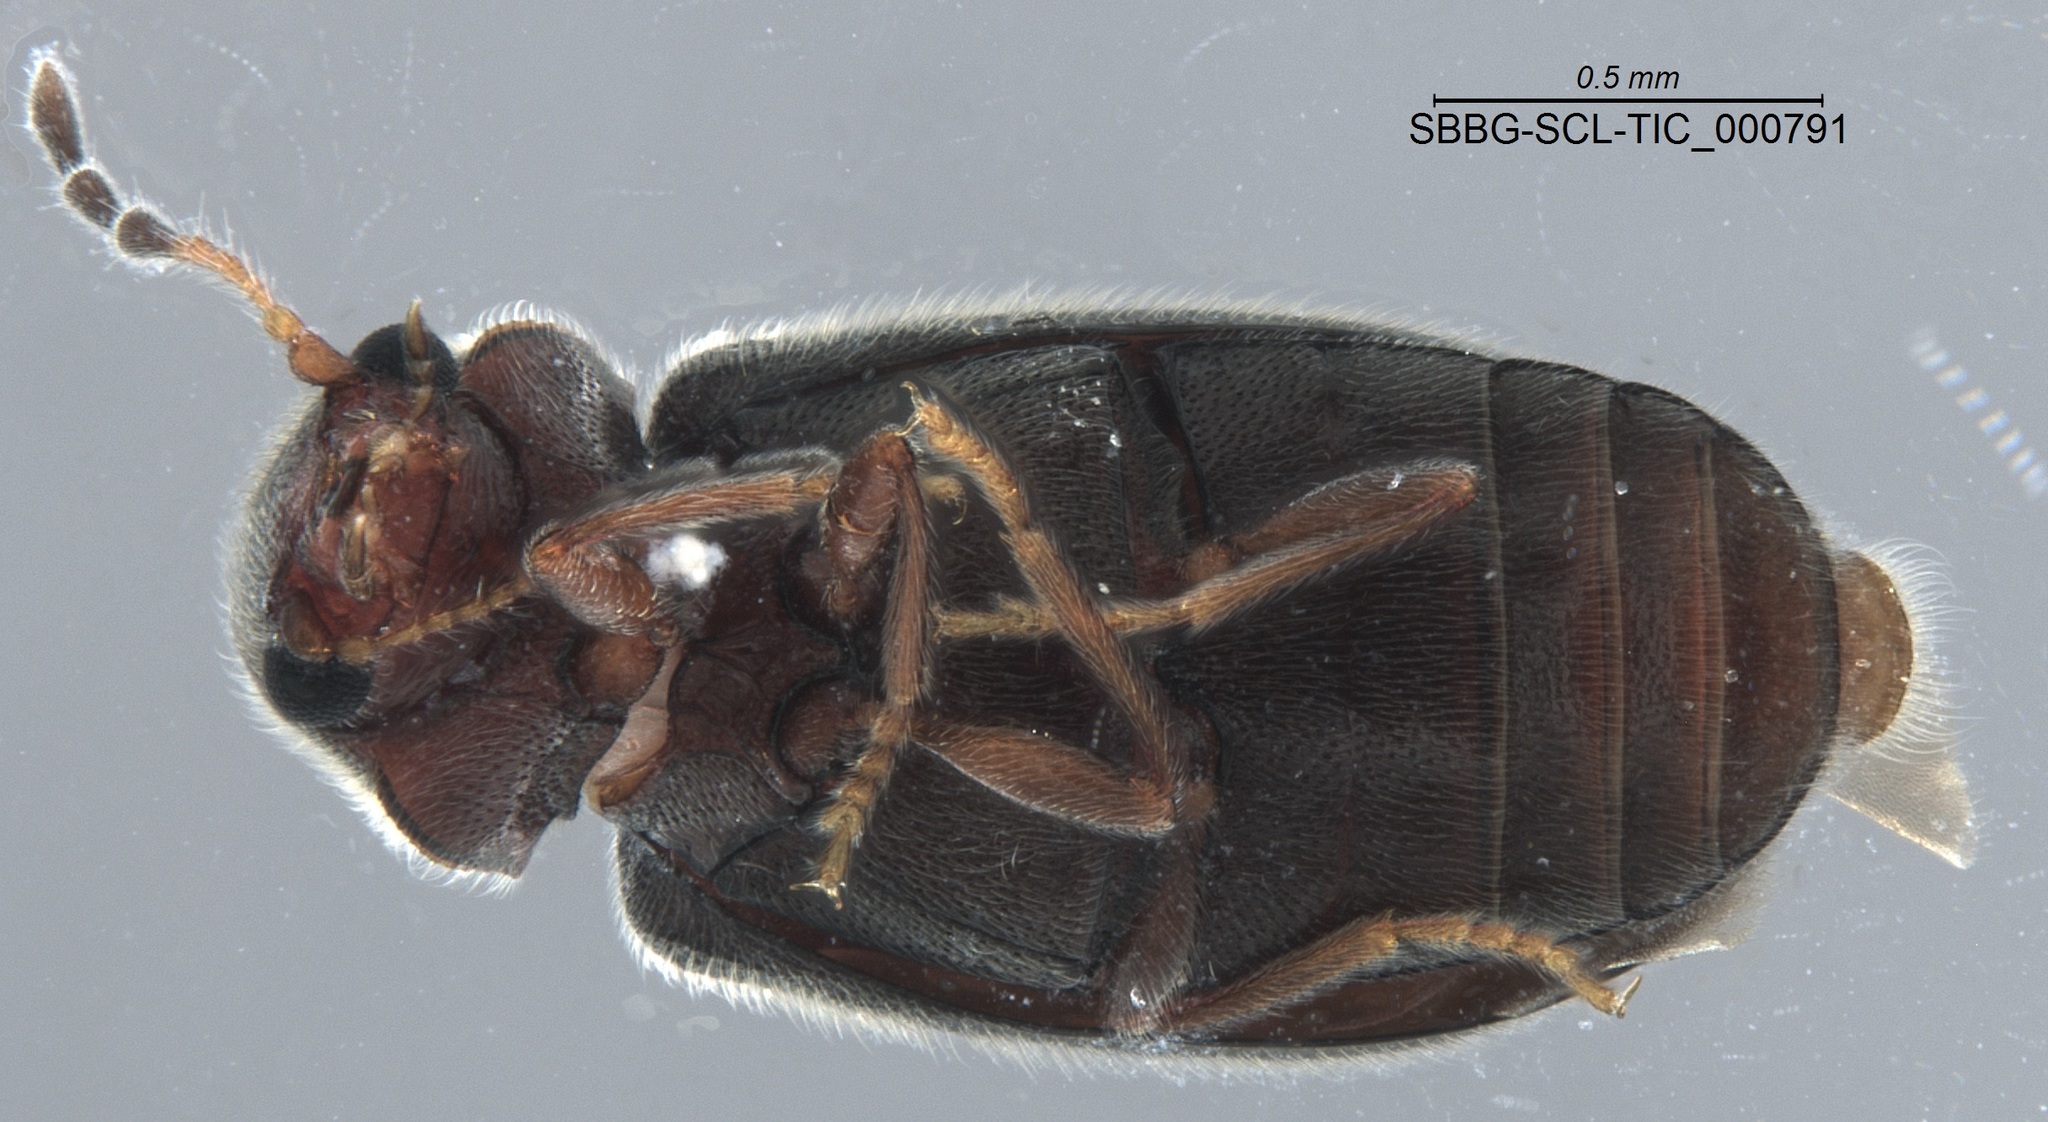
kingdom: Animalia
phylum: Arthropoda
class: Insecta
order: Coleoptera
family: Anobiidae
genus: Ozognathus
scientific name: Ozognathus cornutus
